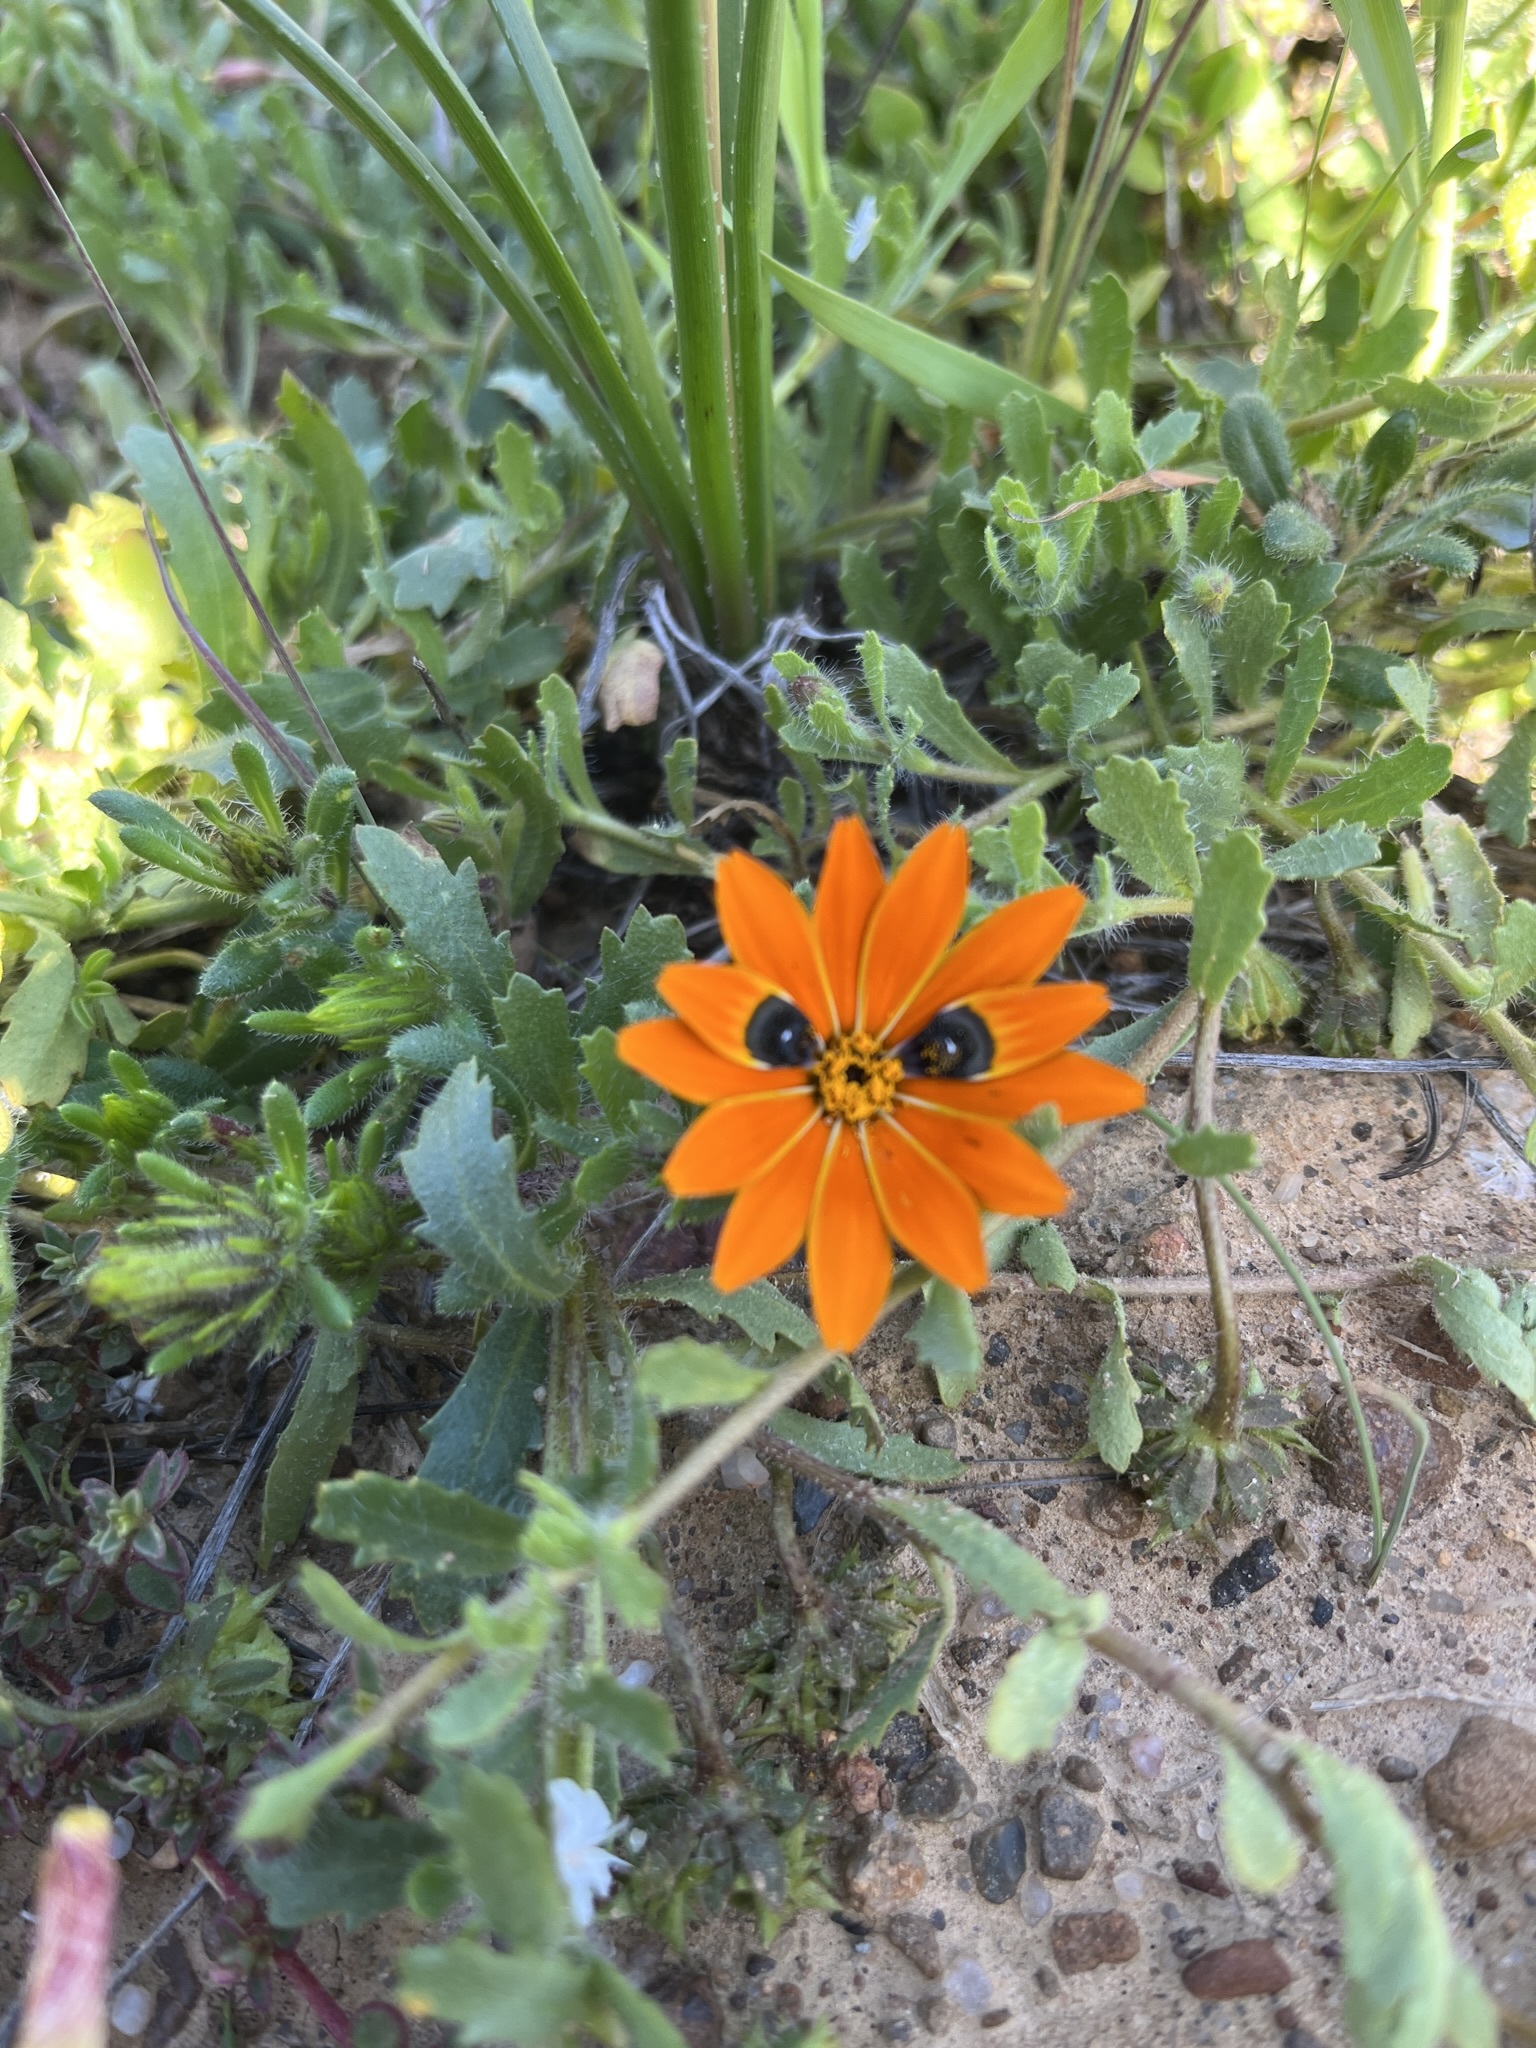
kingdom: Plantae
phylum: Tracheophyta
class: Magnoliopsida
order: Asterales
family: Asteraceae
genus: Gorteria
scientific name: Gorteria diffusa
